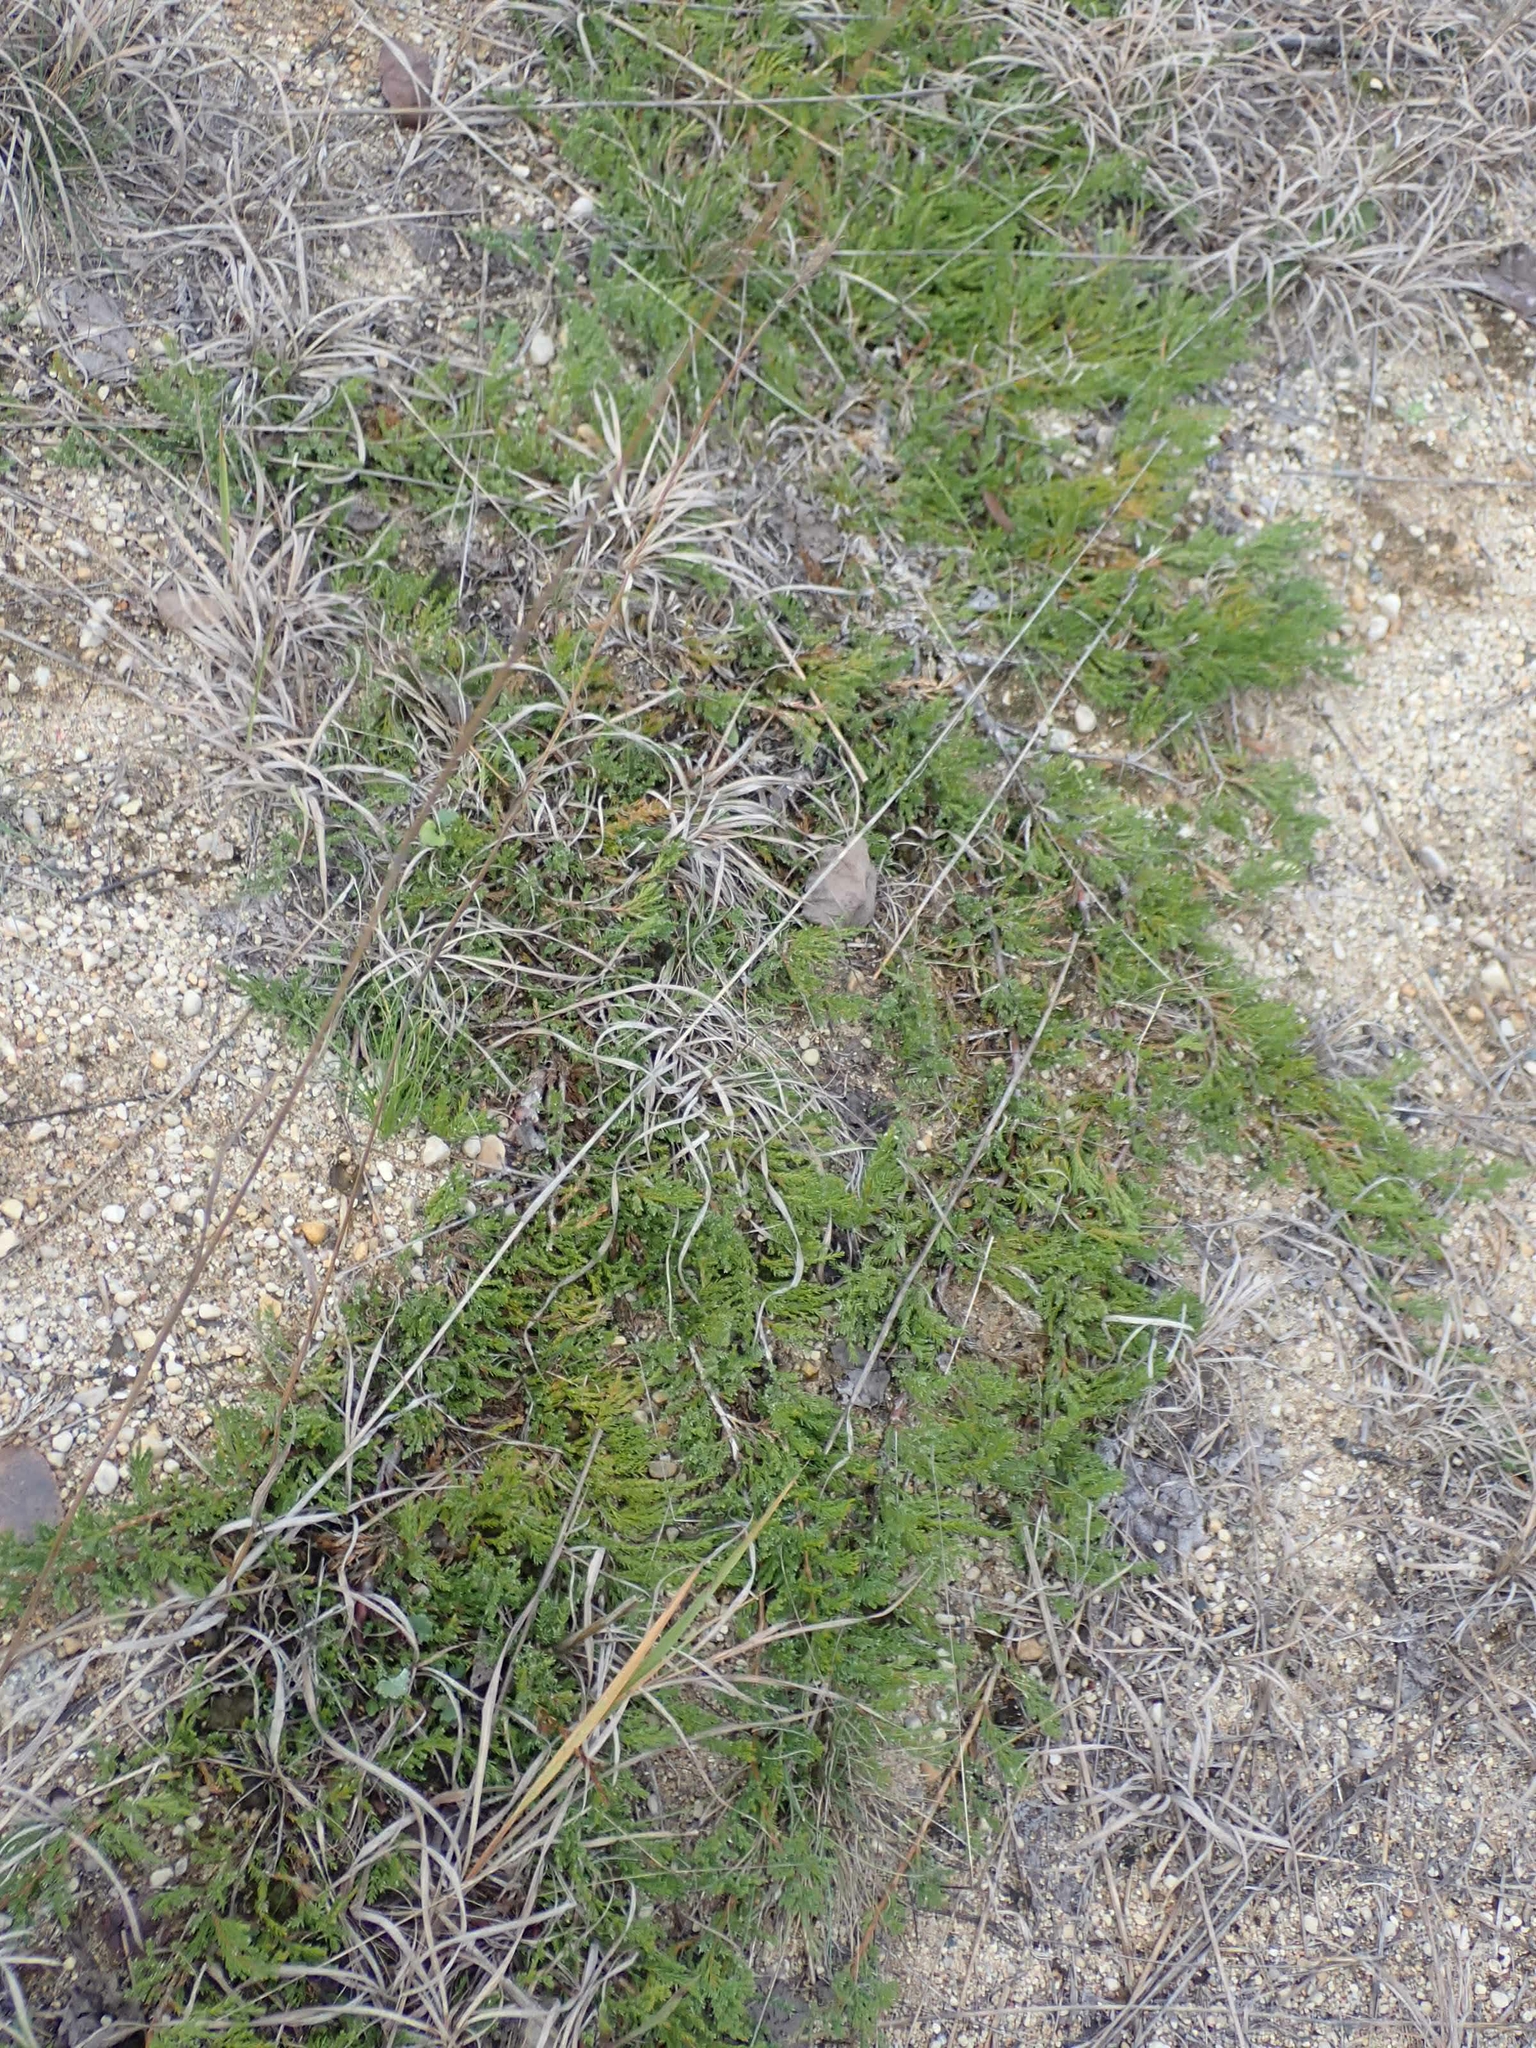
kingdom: Plantae
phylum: Tracheophyta
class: Pinopsida
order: Pinales
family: Cupressaceae
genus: Juniperus
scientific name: Juniperus horizontalis
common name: Creeping juniper
